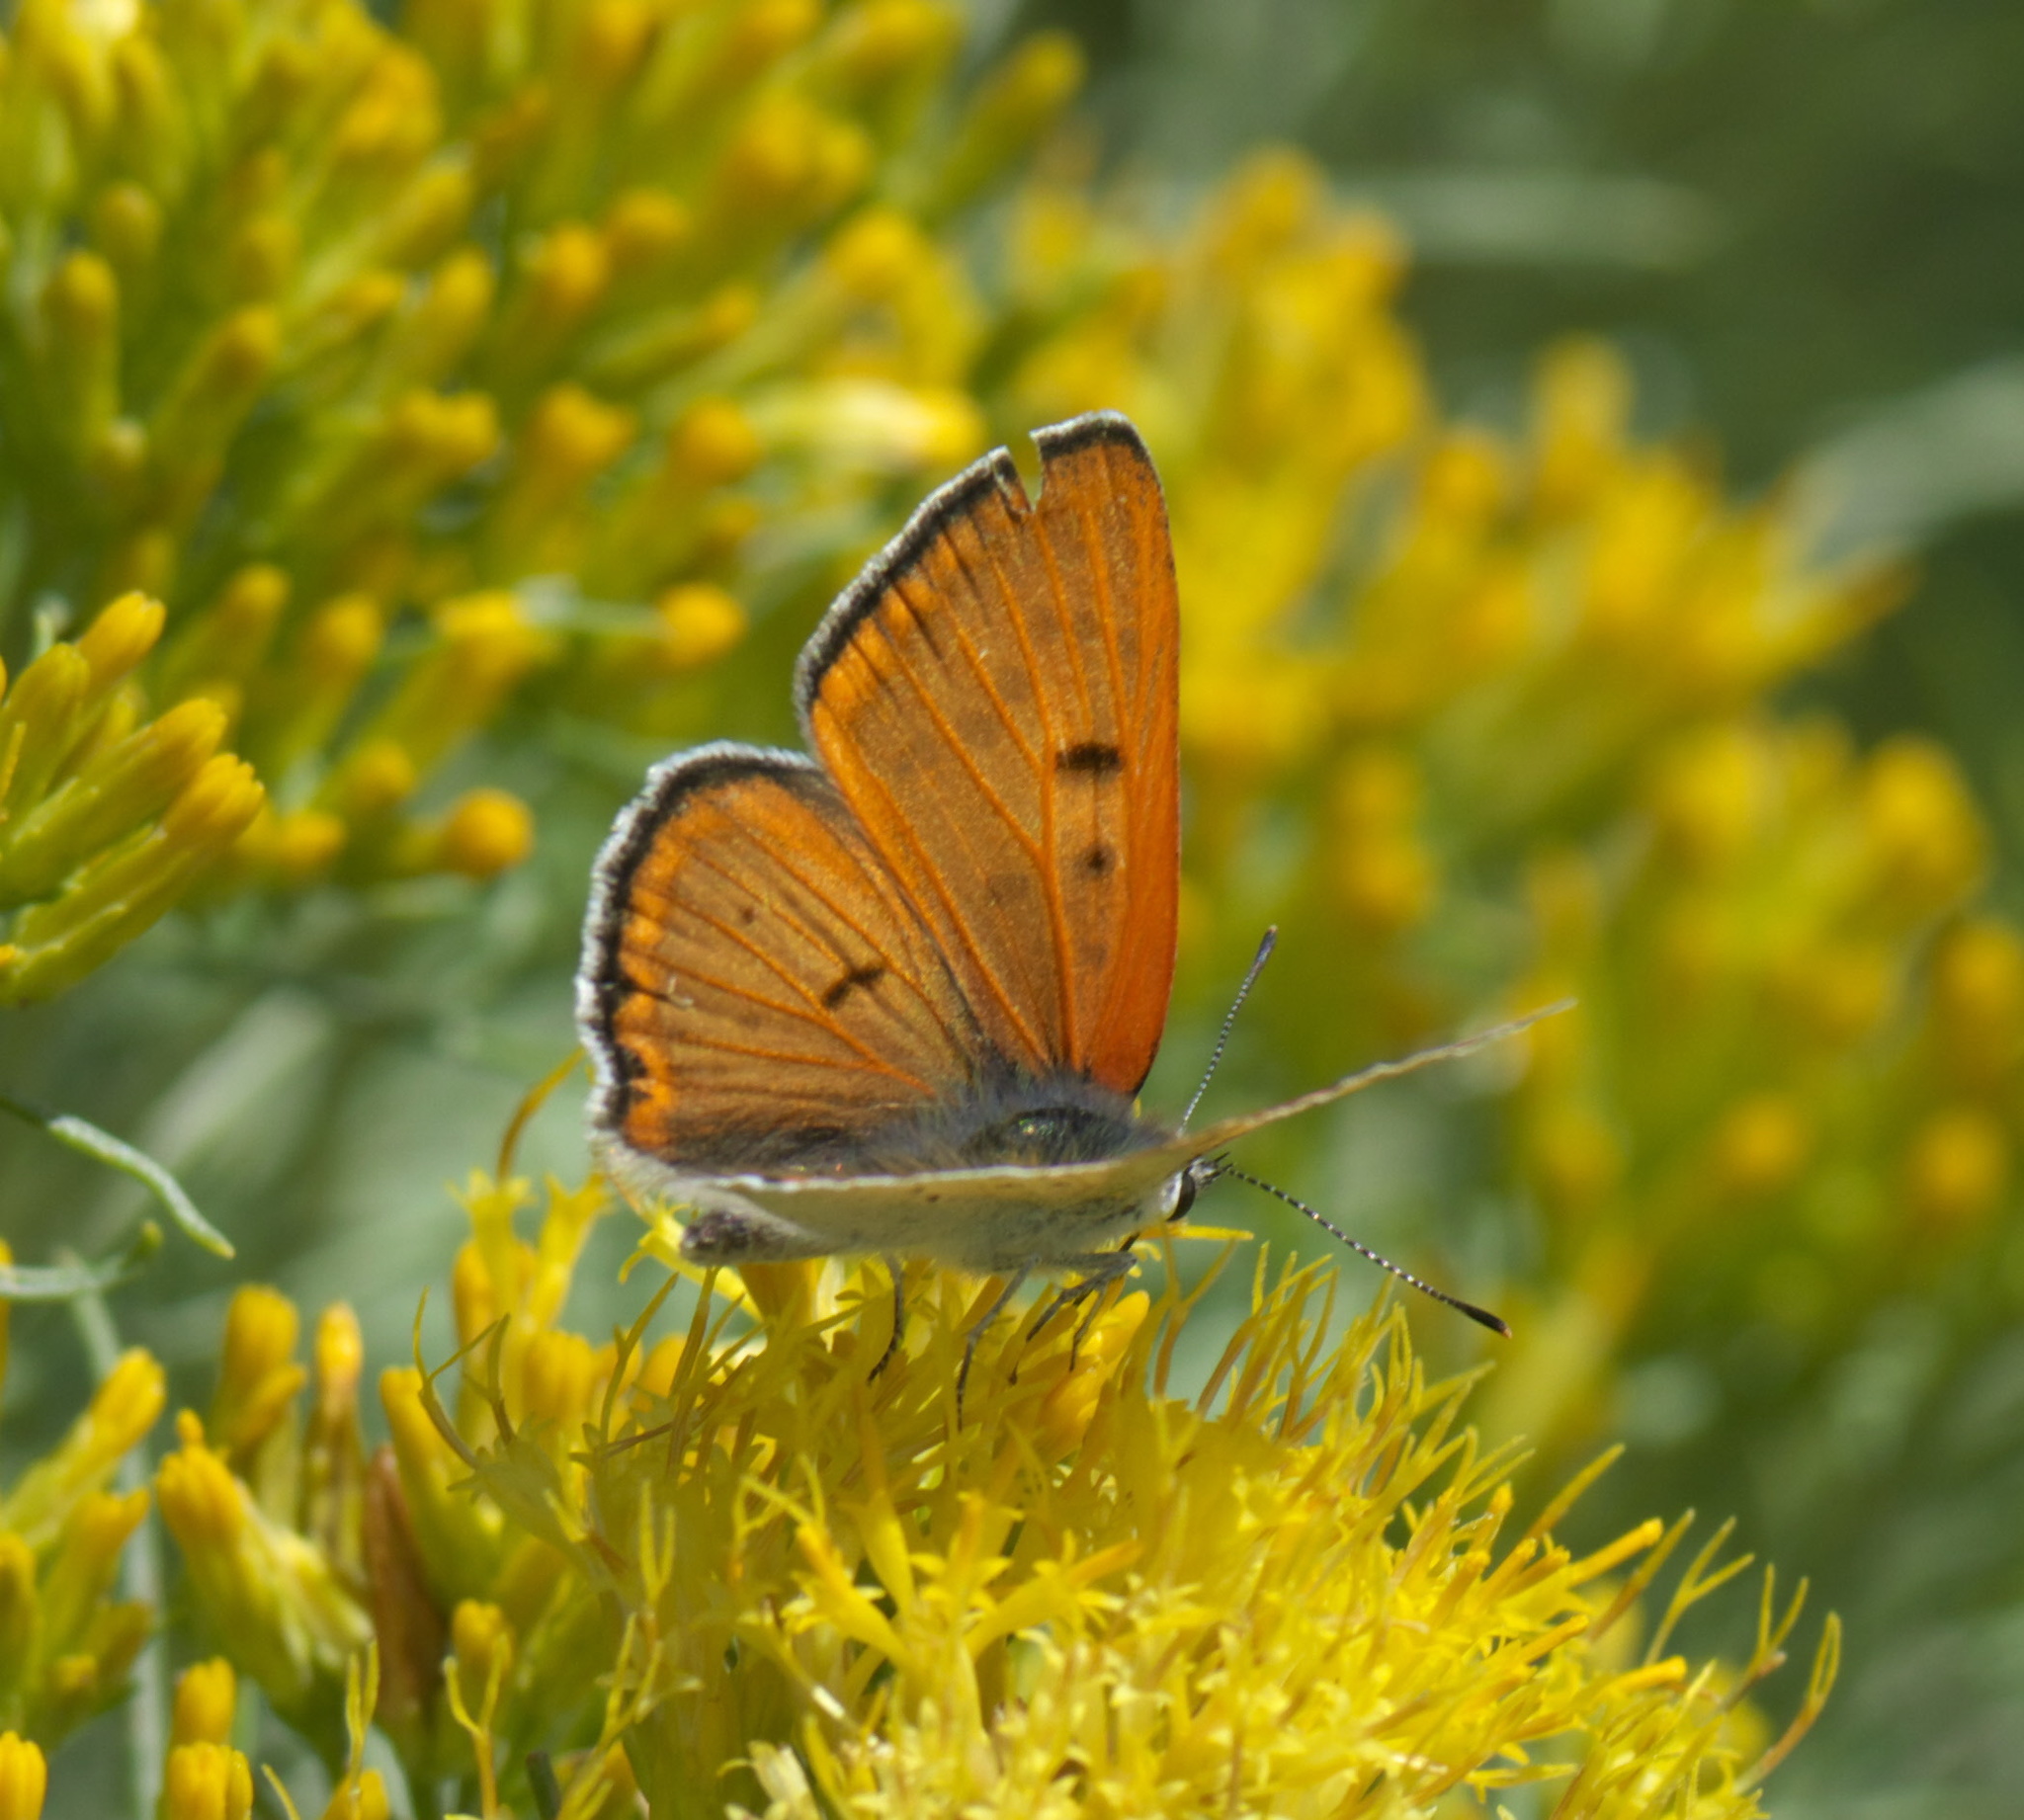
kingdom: Animalia
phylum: Arthropoda
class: Insecta
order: Lepidoptera
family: Lycaenidae
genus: Tharsalea
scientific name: Tharsalea rubidus
